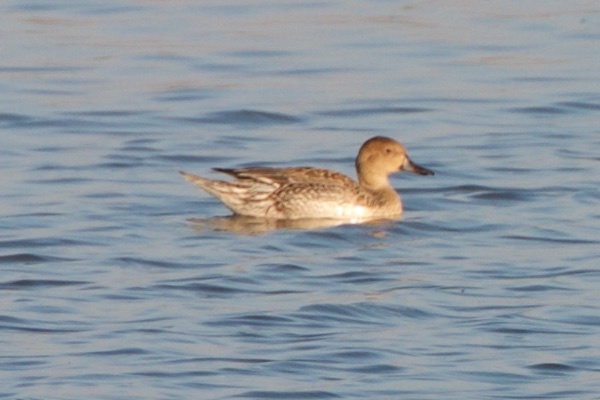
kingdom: Animalia
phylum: Chordata
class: Aves
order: Anseriformes
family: Anatidae
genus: Anas
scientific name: Anas acuta
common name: Northern pintail
